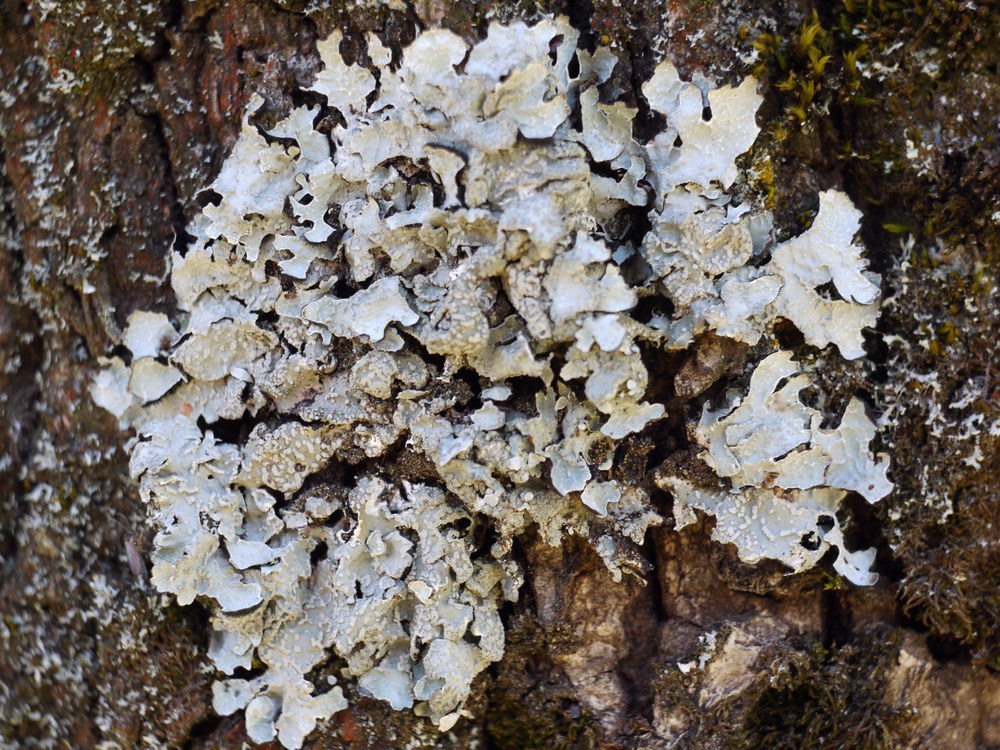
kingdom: Fungi
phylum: Ascomycota
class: Lecanoromycetes
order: Lecanorales
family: Parmeliaceae
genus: Parmelia
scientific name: Parmelia sulcata
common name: Netted shield lichen
